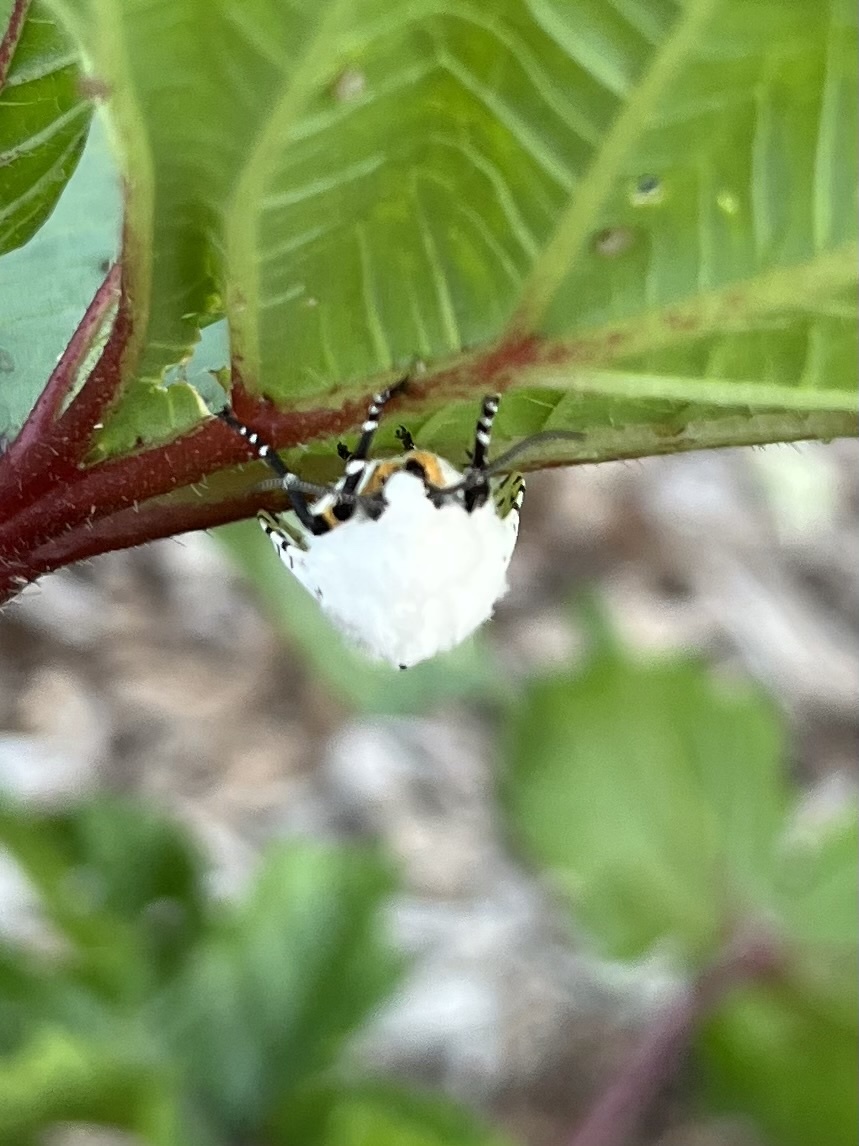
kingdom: Animalia
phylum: Arthropoda
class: Insecta
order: Lepidoptera
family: Erebidae
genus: Estigmene
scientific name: Estigmene acrea
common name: Salt marsh moth
